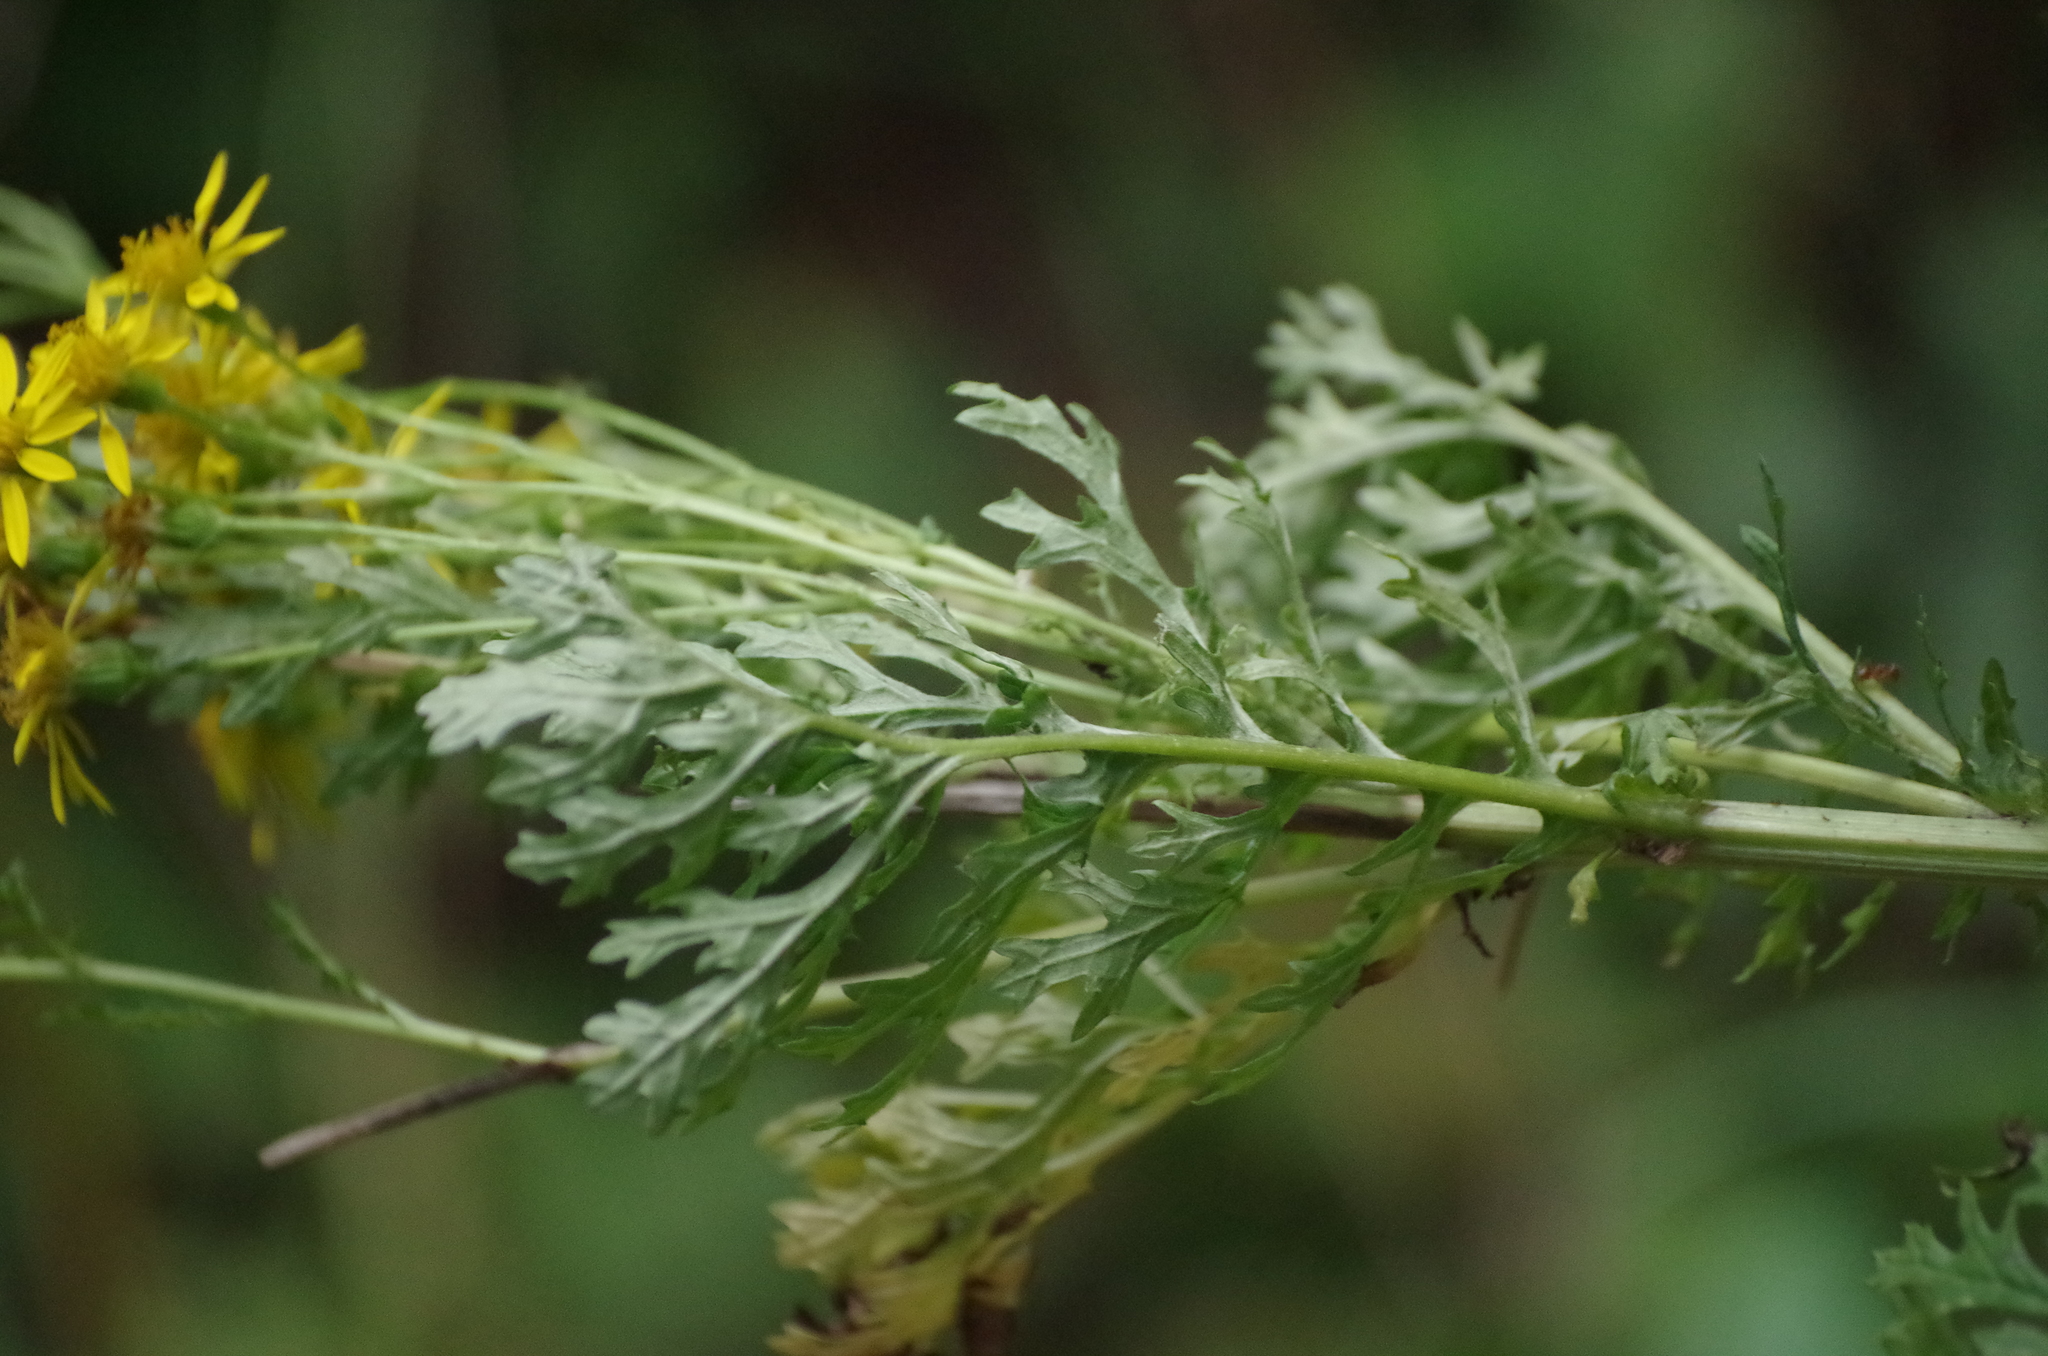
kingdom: Plantae
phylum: Tracheophyta
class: Magnoliopsida
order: Asterales
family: Asteraceae
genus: Jacobaea
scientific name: Jacobaea vulgaris
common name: Stinking willie
